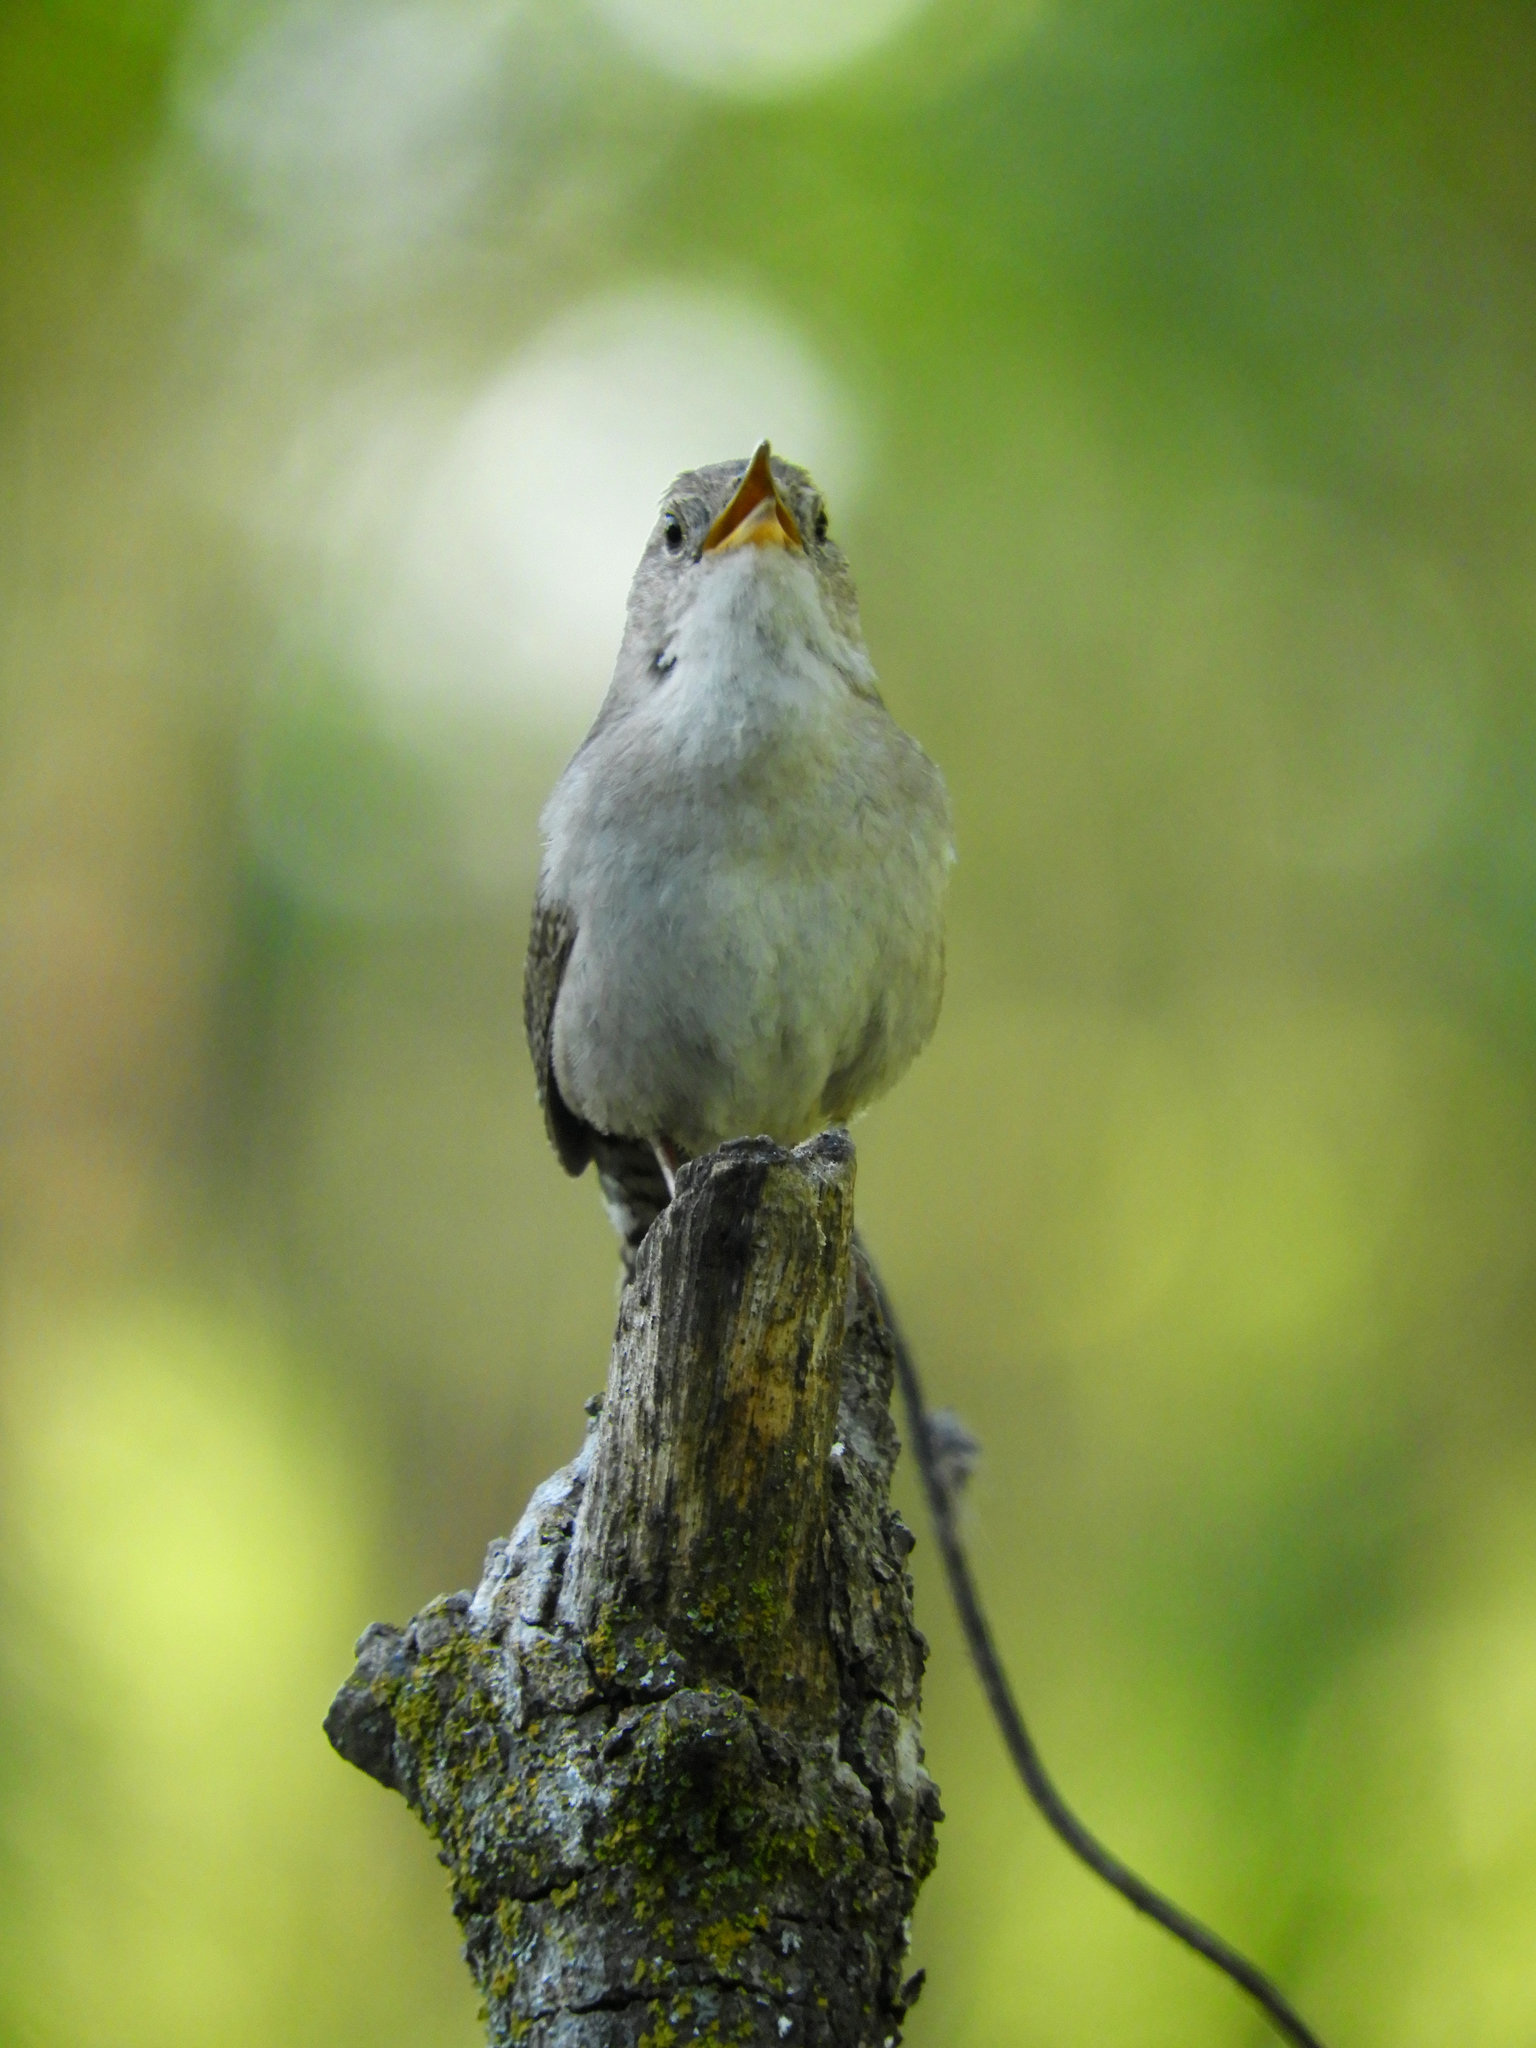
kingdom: Animalia
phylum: Chordata
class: Aves
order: Passeriformes
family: Troglodytidae
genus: Troglodytes
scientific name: Troglodytes aedon
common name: House wren
